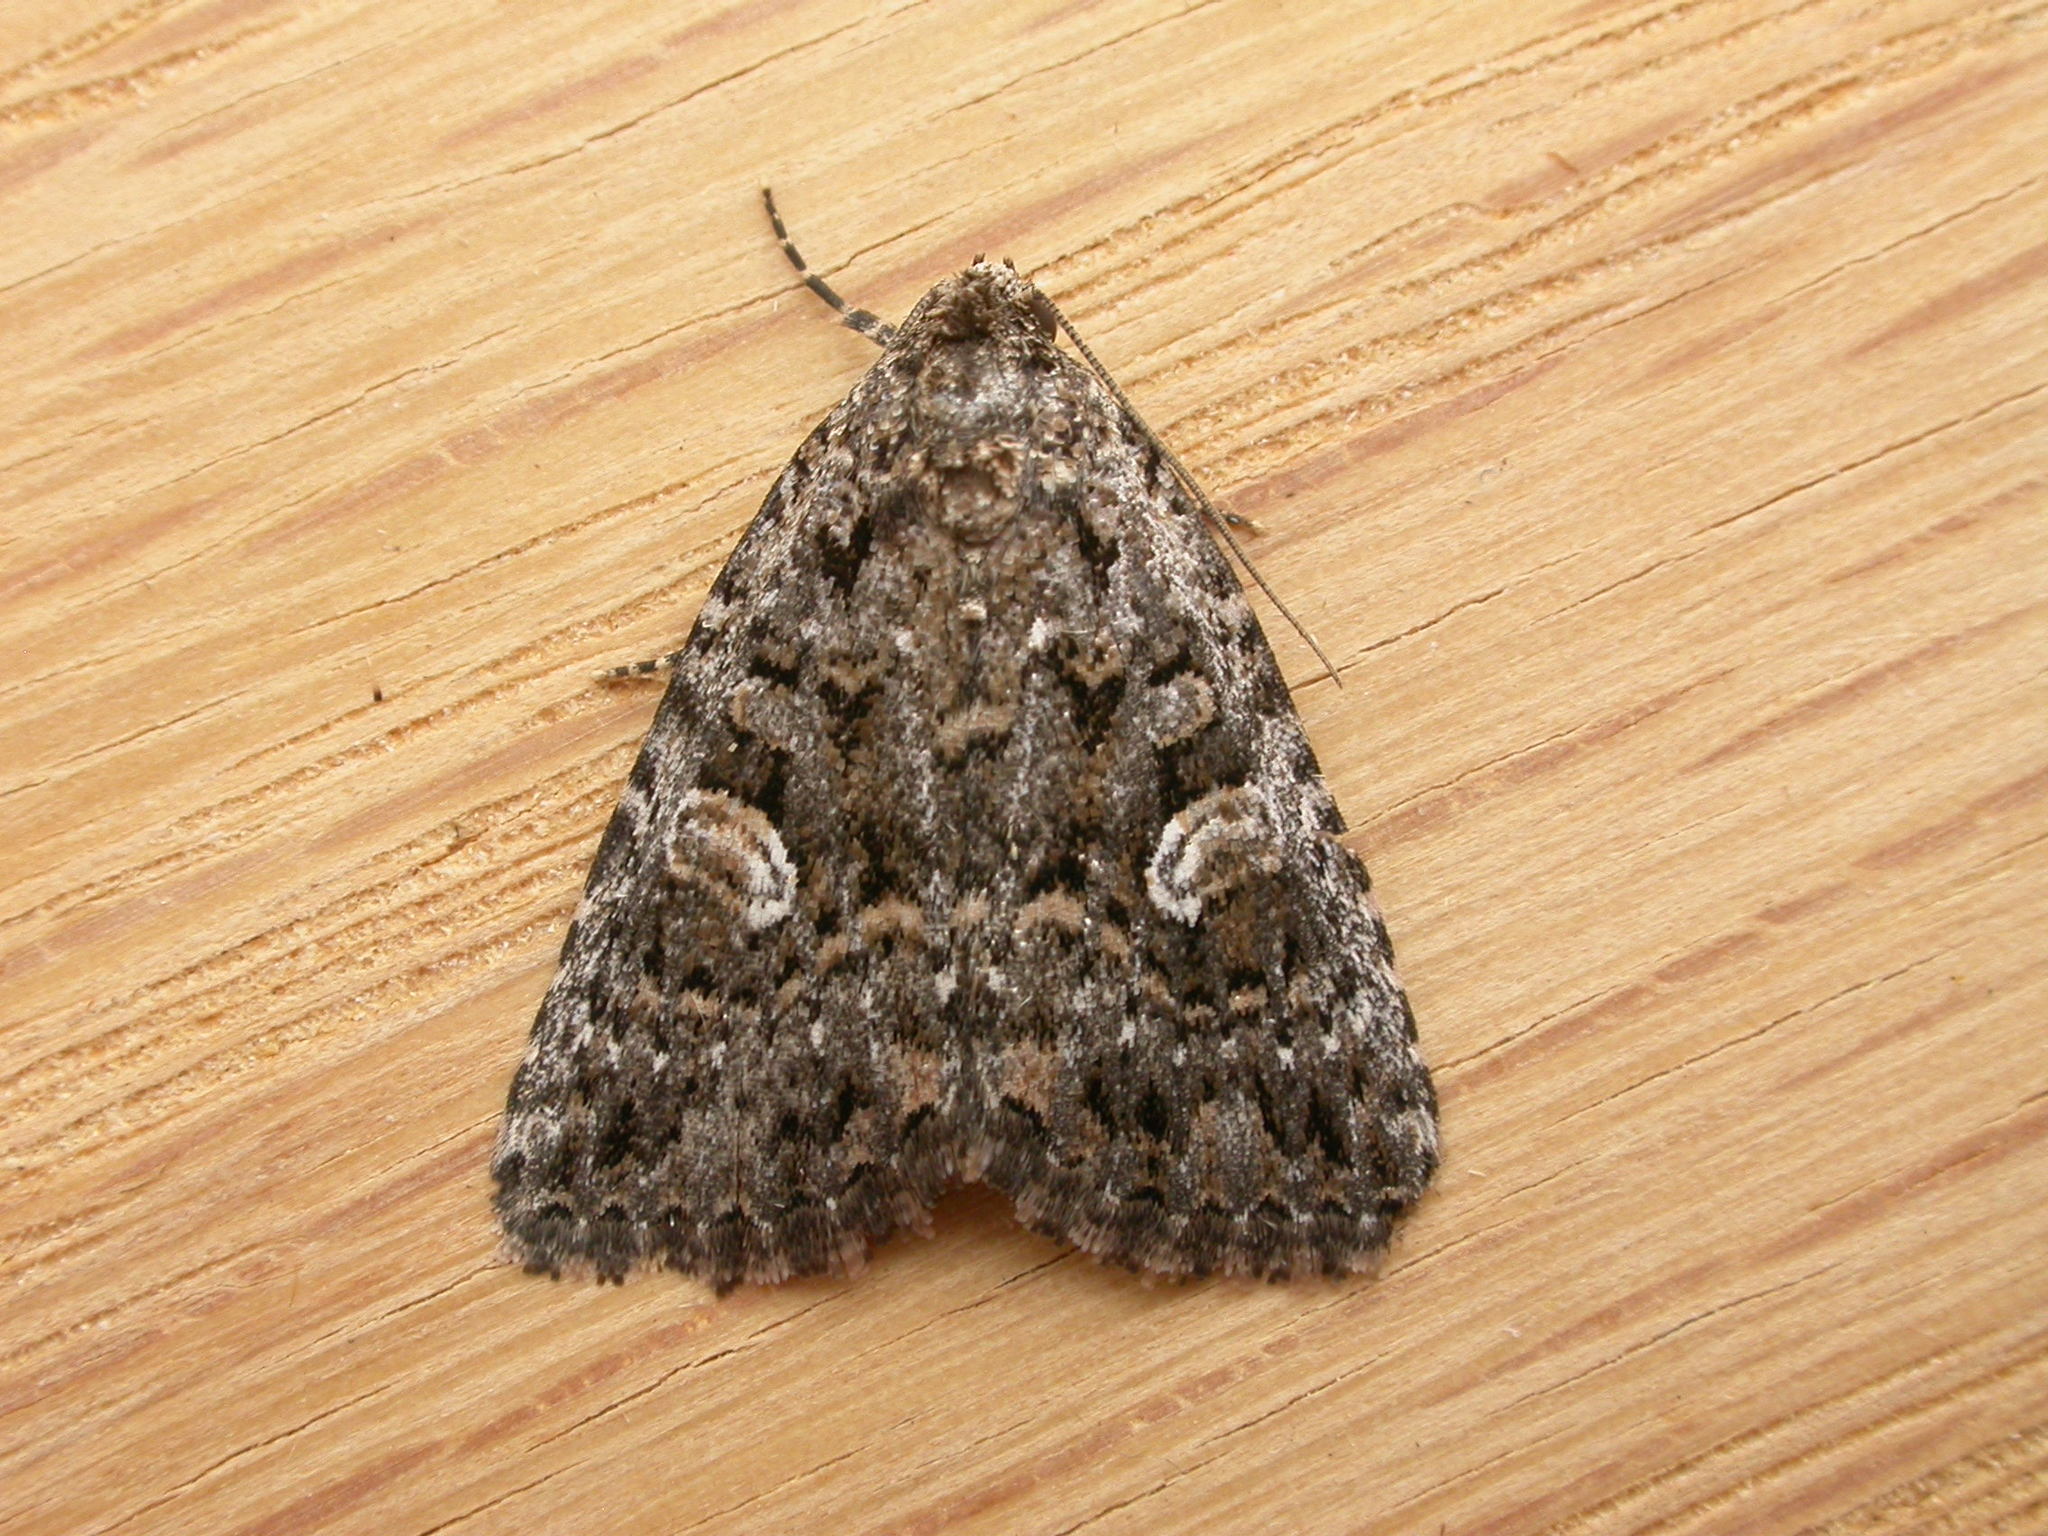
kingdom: Animalia
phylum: Arthropoda
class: Insecta
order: Lepidoptera
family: Noctuidae
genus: Condica
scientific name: Condica aroana
